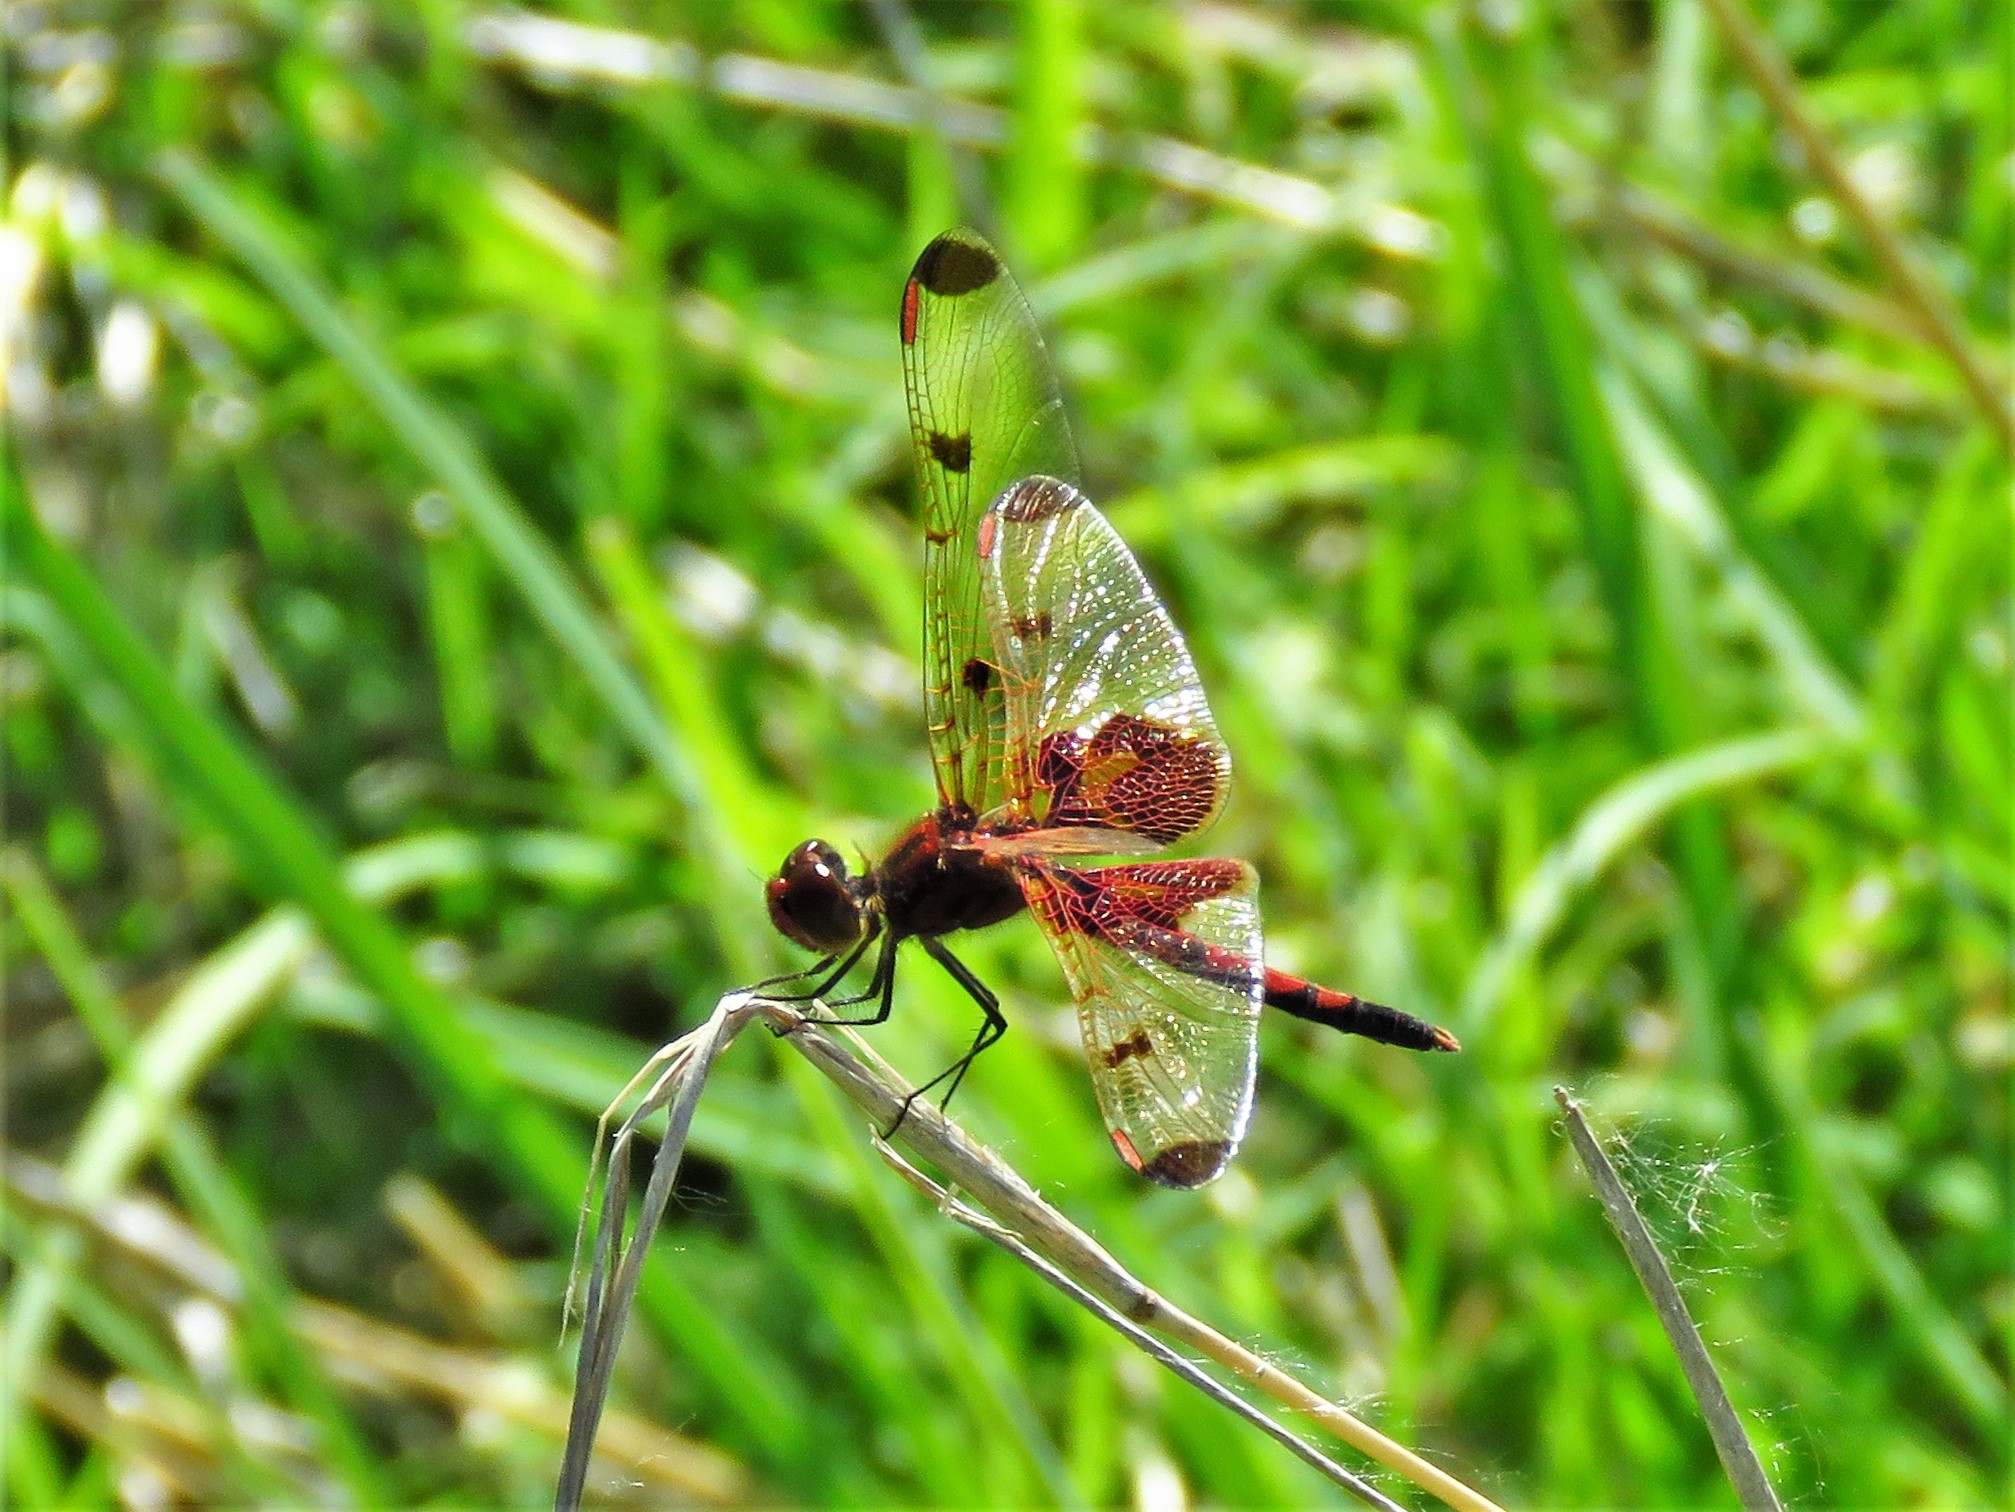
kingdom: Animalia
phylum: Arthropoda
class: Insecta
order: Odonata
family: Libellulidae
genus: Celithemis
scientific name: Celithemis elisa
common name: Calico pennant
